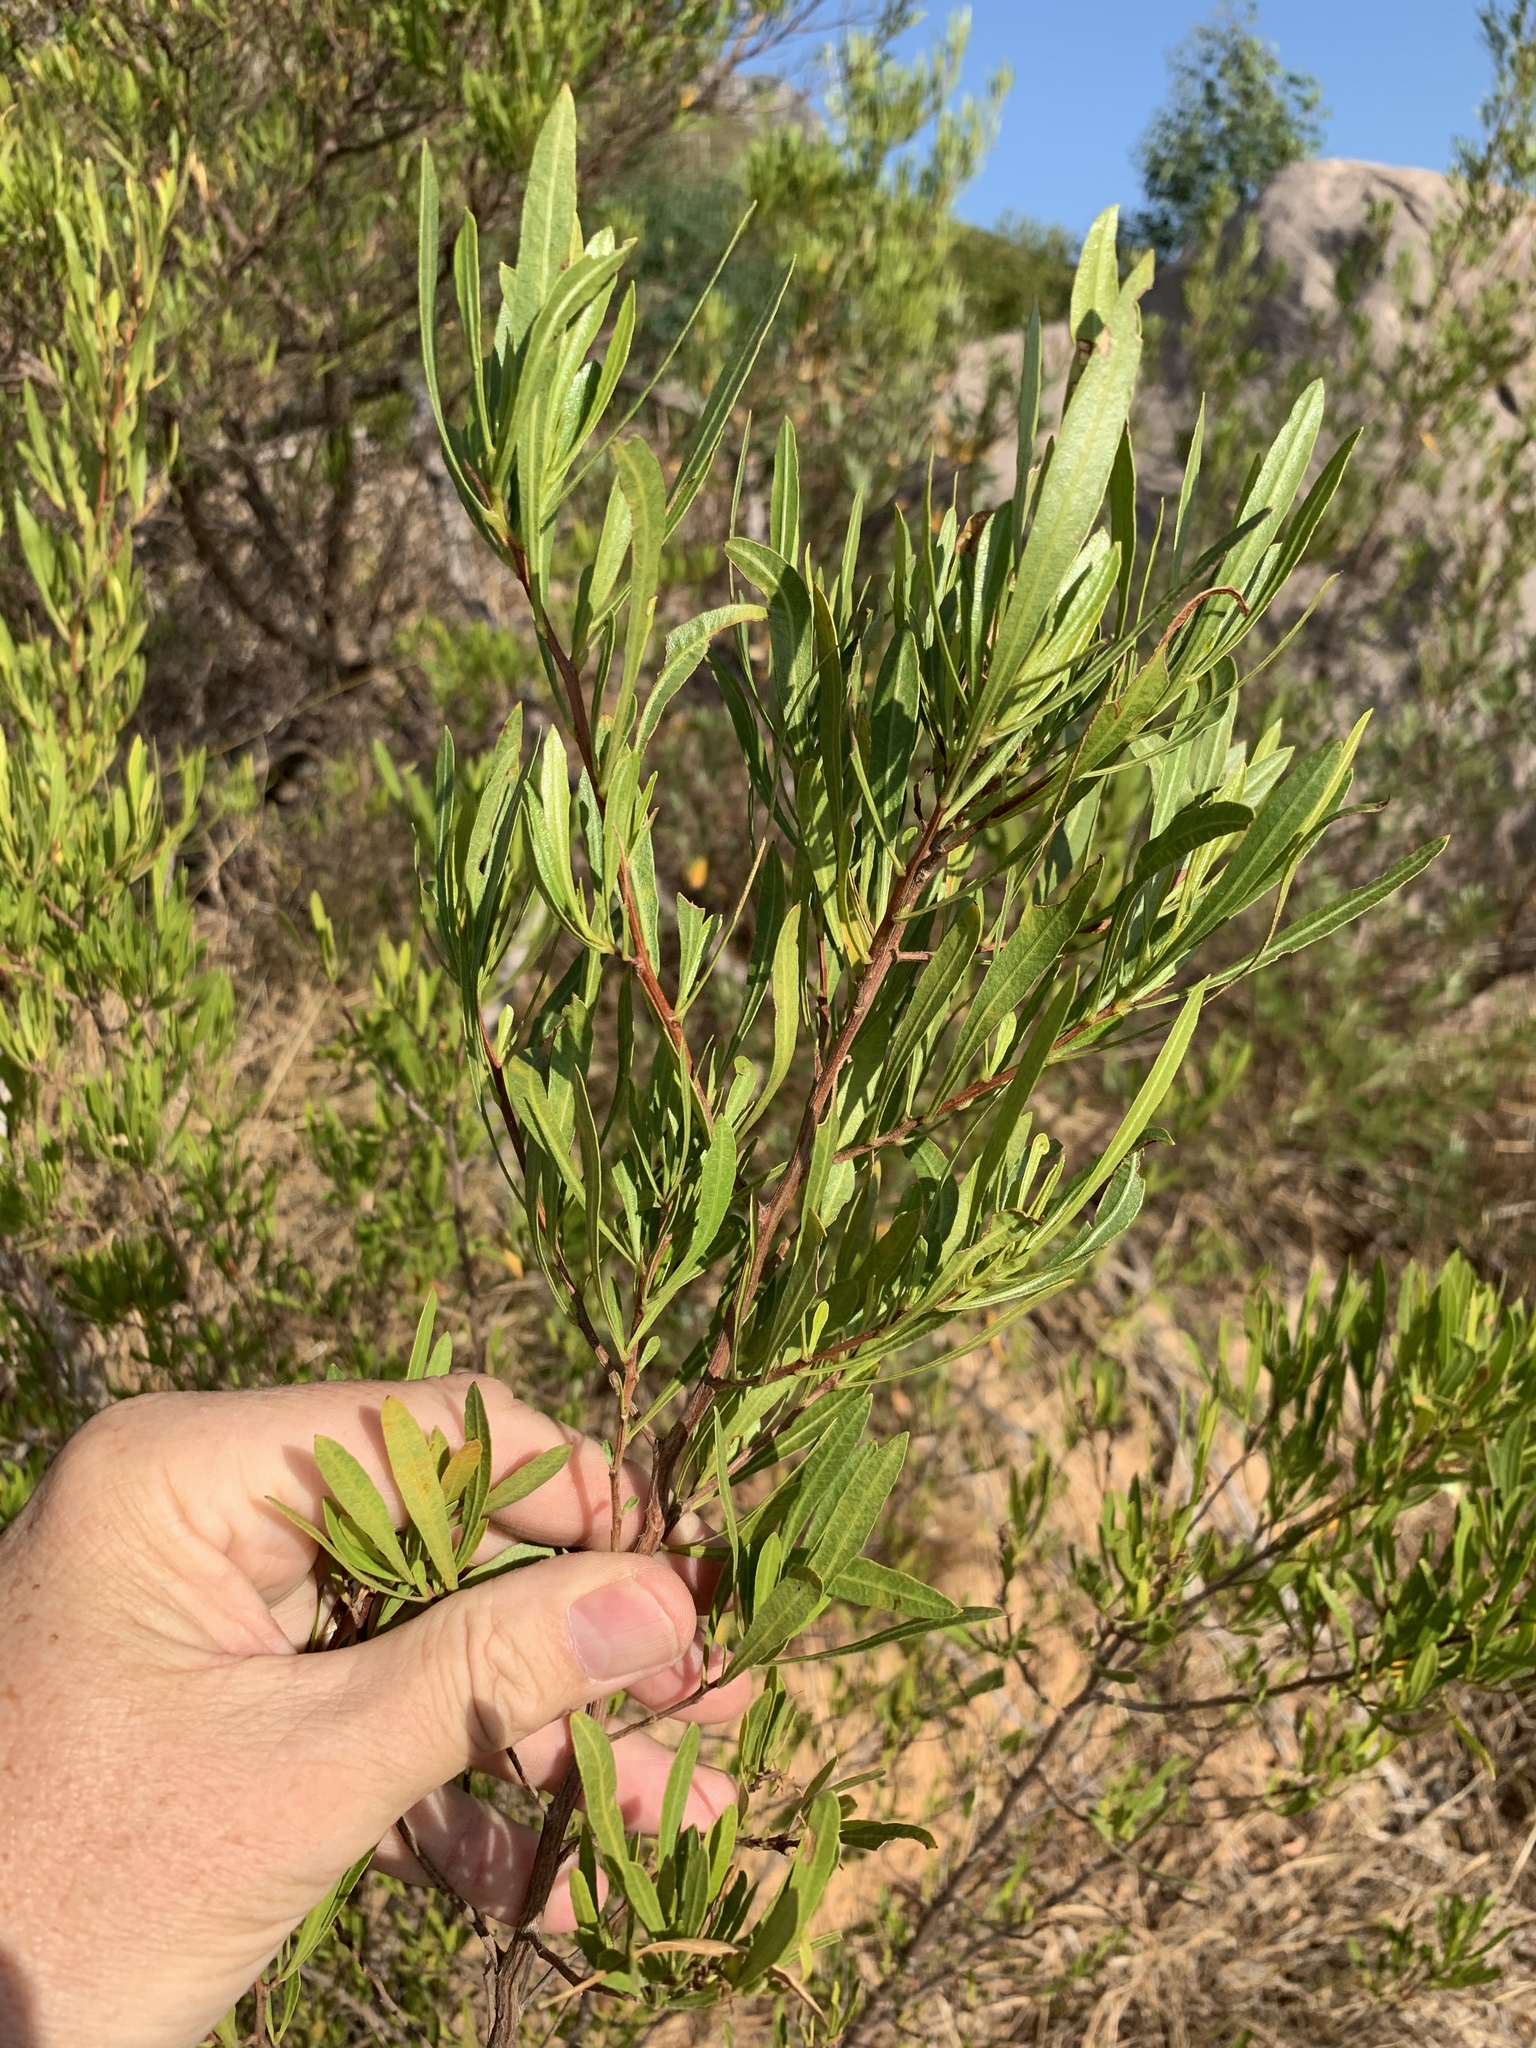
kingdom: Plantae
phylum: Tracheophyta
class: Magnoliopsida
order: Sapindales
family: Sapindaceae
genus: Dodonaea
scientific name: Dodonaea viscosa
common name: Hopbush
